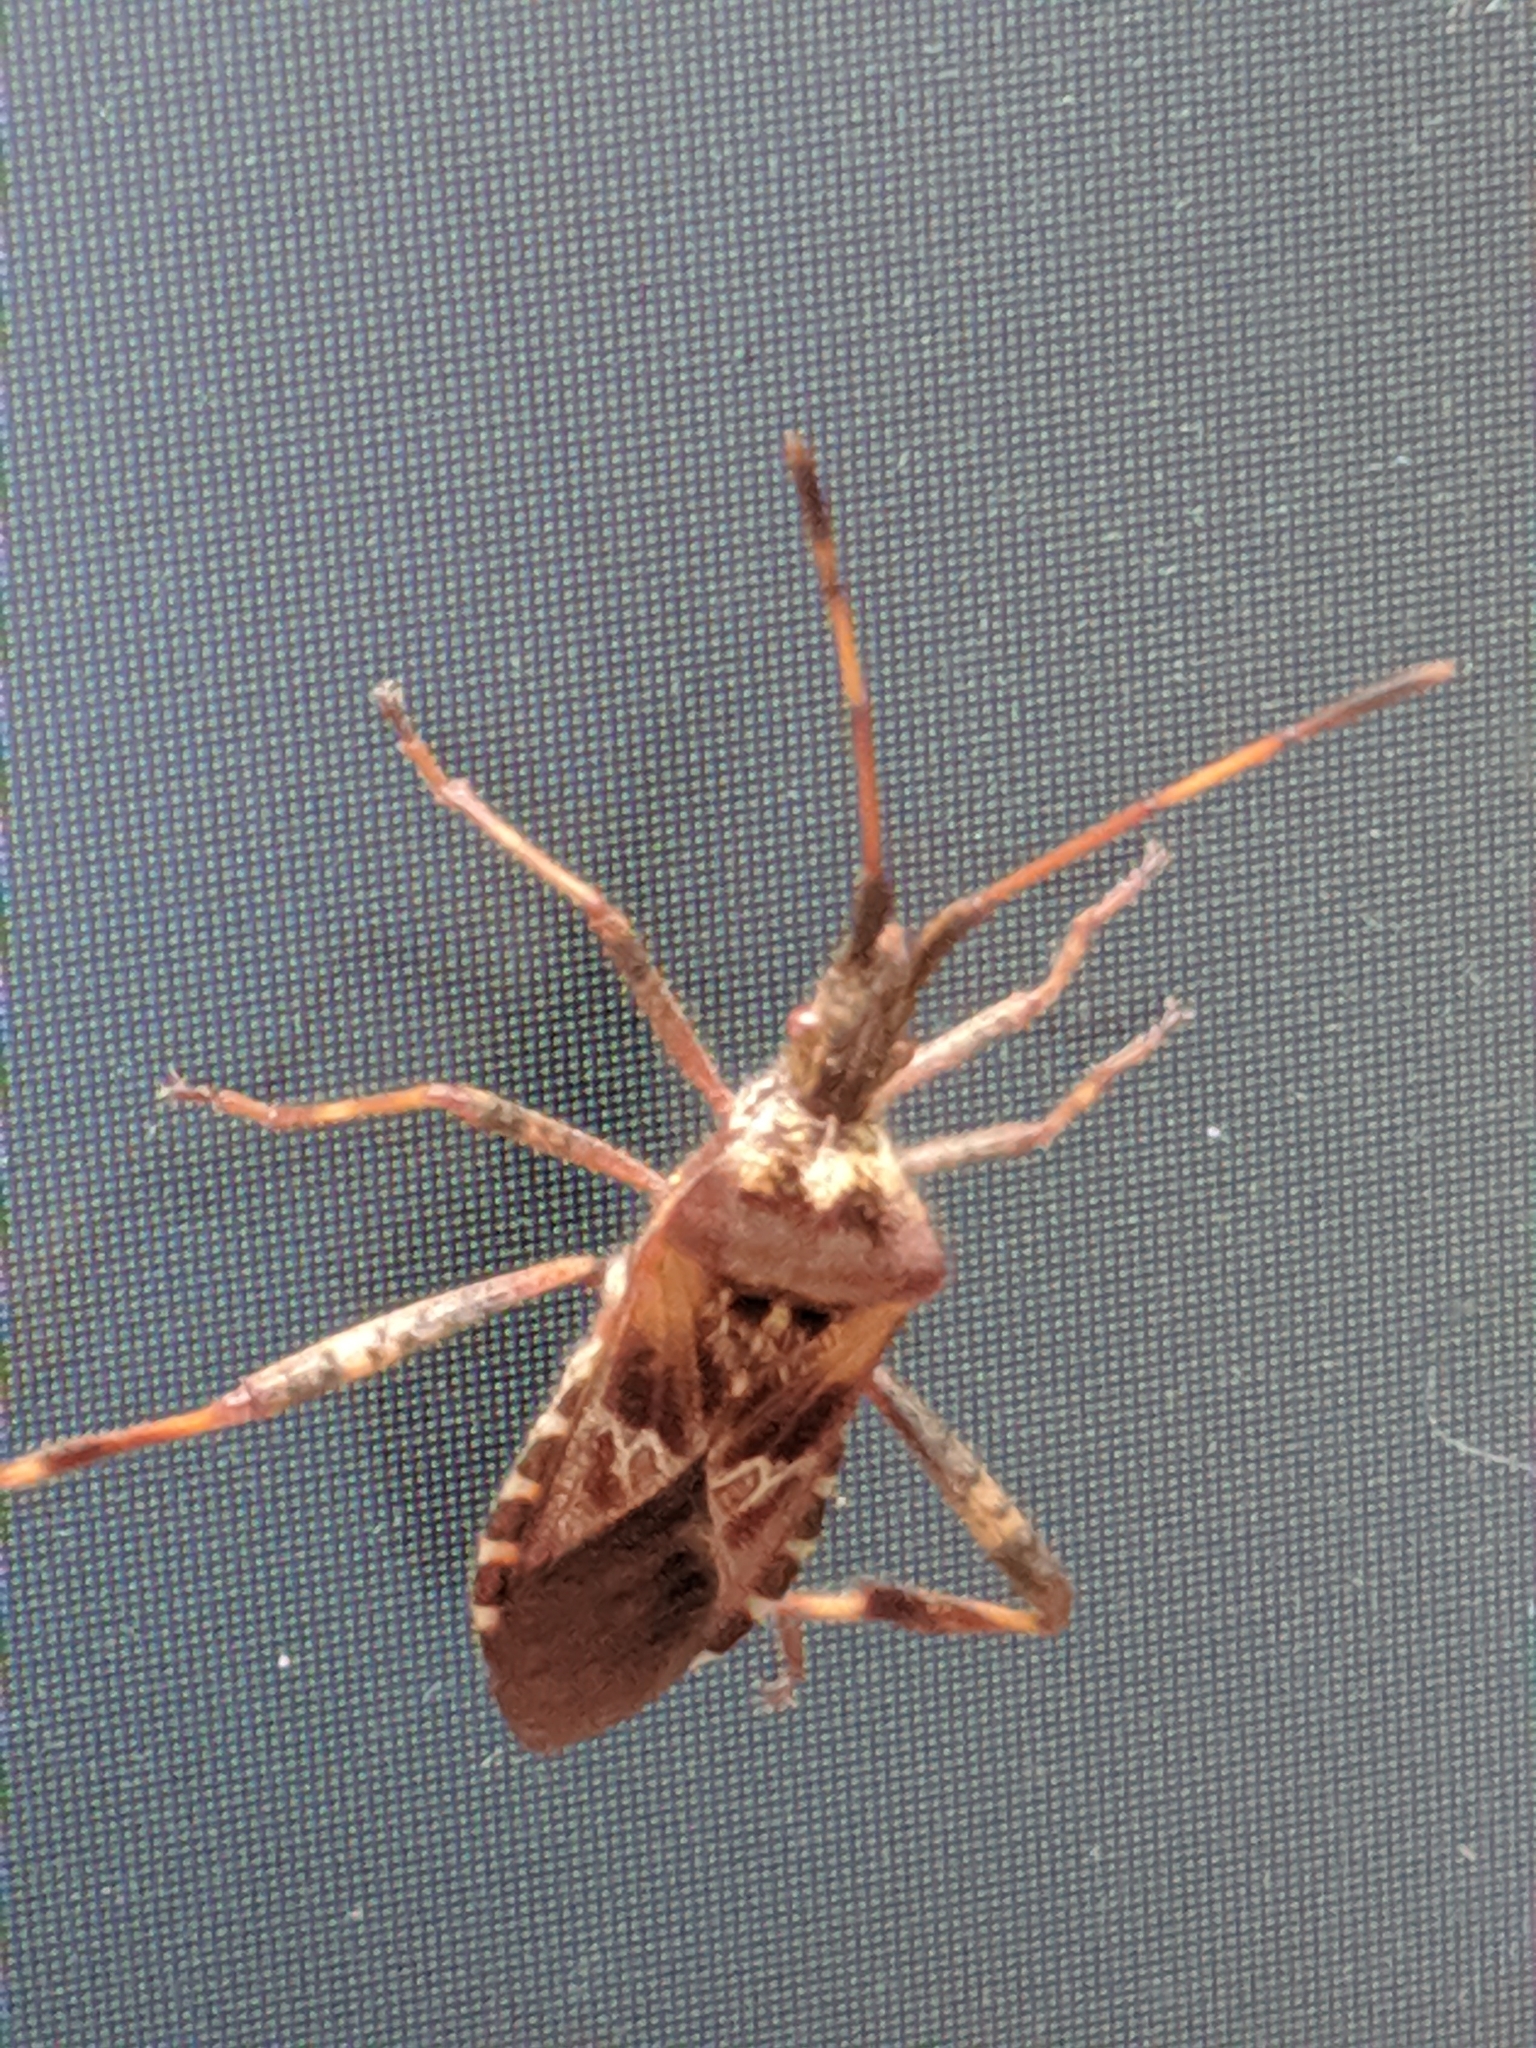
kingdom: Animalia
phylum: Arthropoda
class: Insecta
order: Hemiptera
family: Coreidae
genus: Leptoglossus
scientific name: Leptoglossus occidentalis
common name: Western conifer-seed bug
